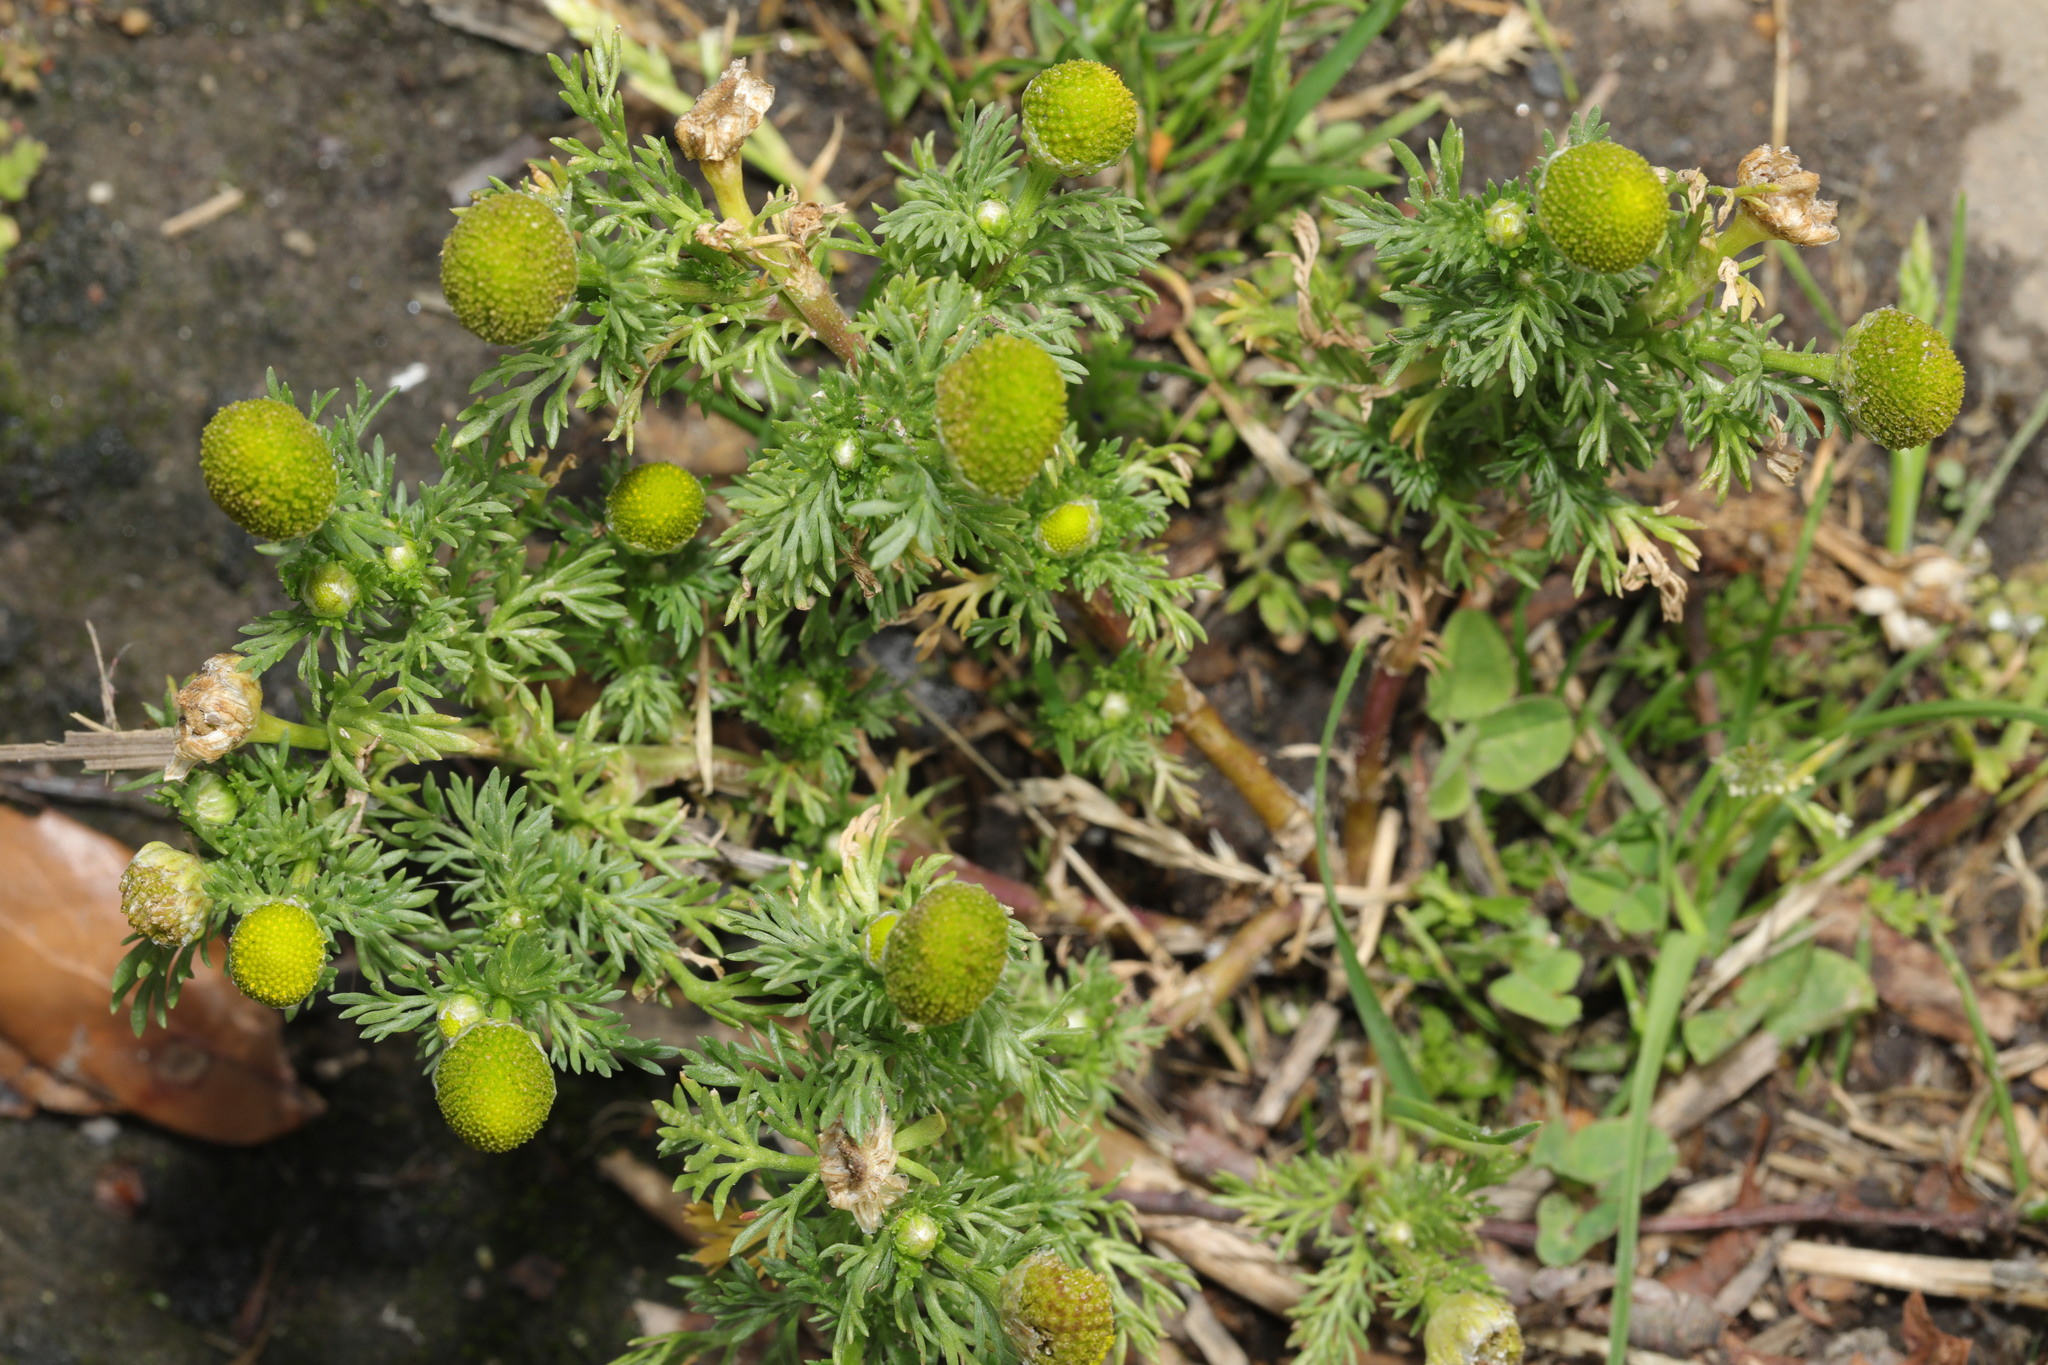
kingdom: Plantae
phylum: Tracheophyta
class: Magnoliopsida
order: Asterales
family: Asteraceae
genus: Matricaria
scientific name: Matricaria discoidea
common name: Disc mayweed
